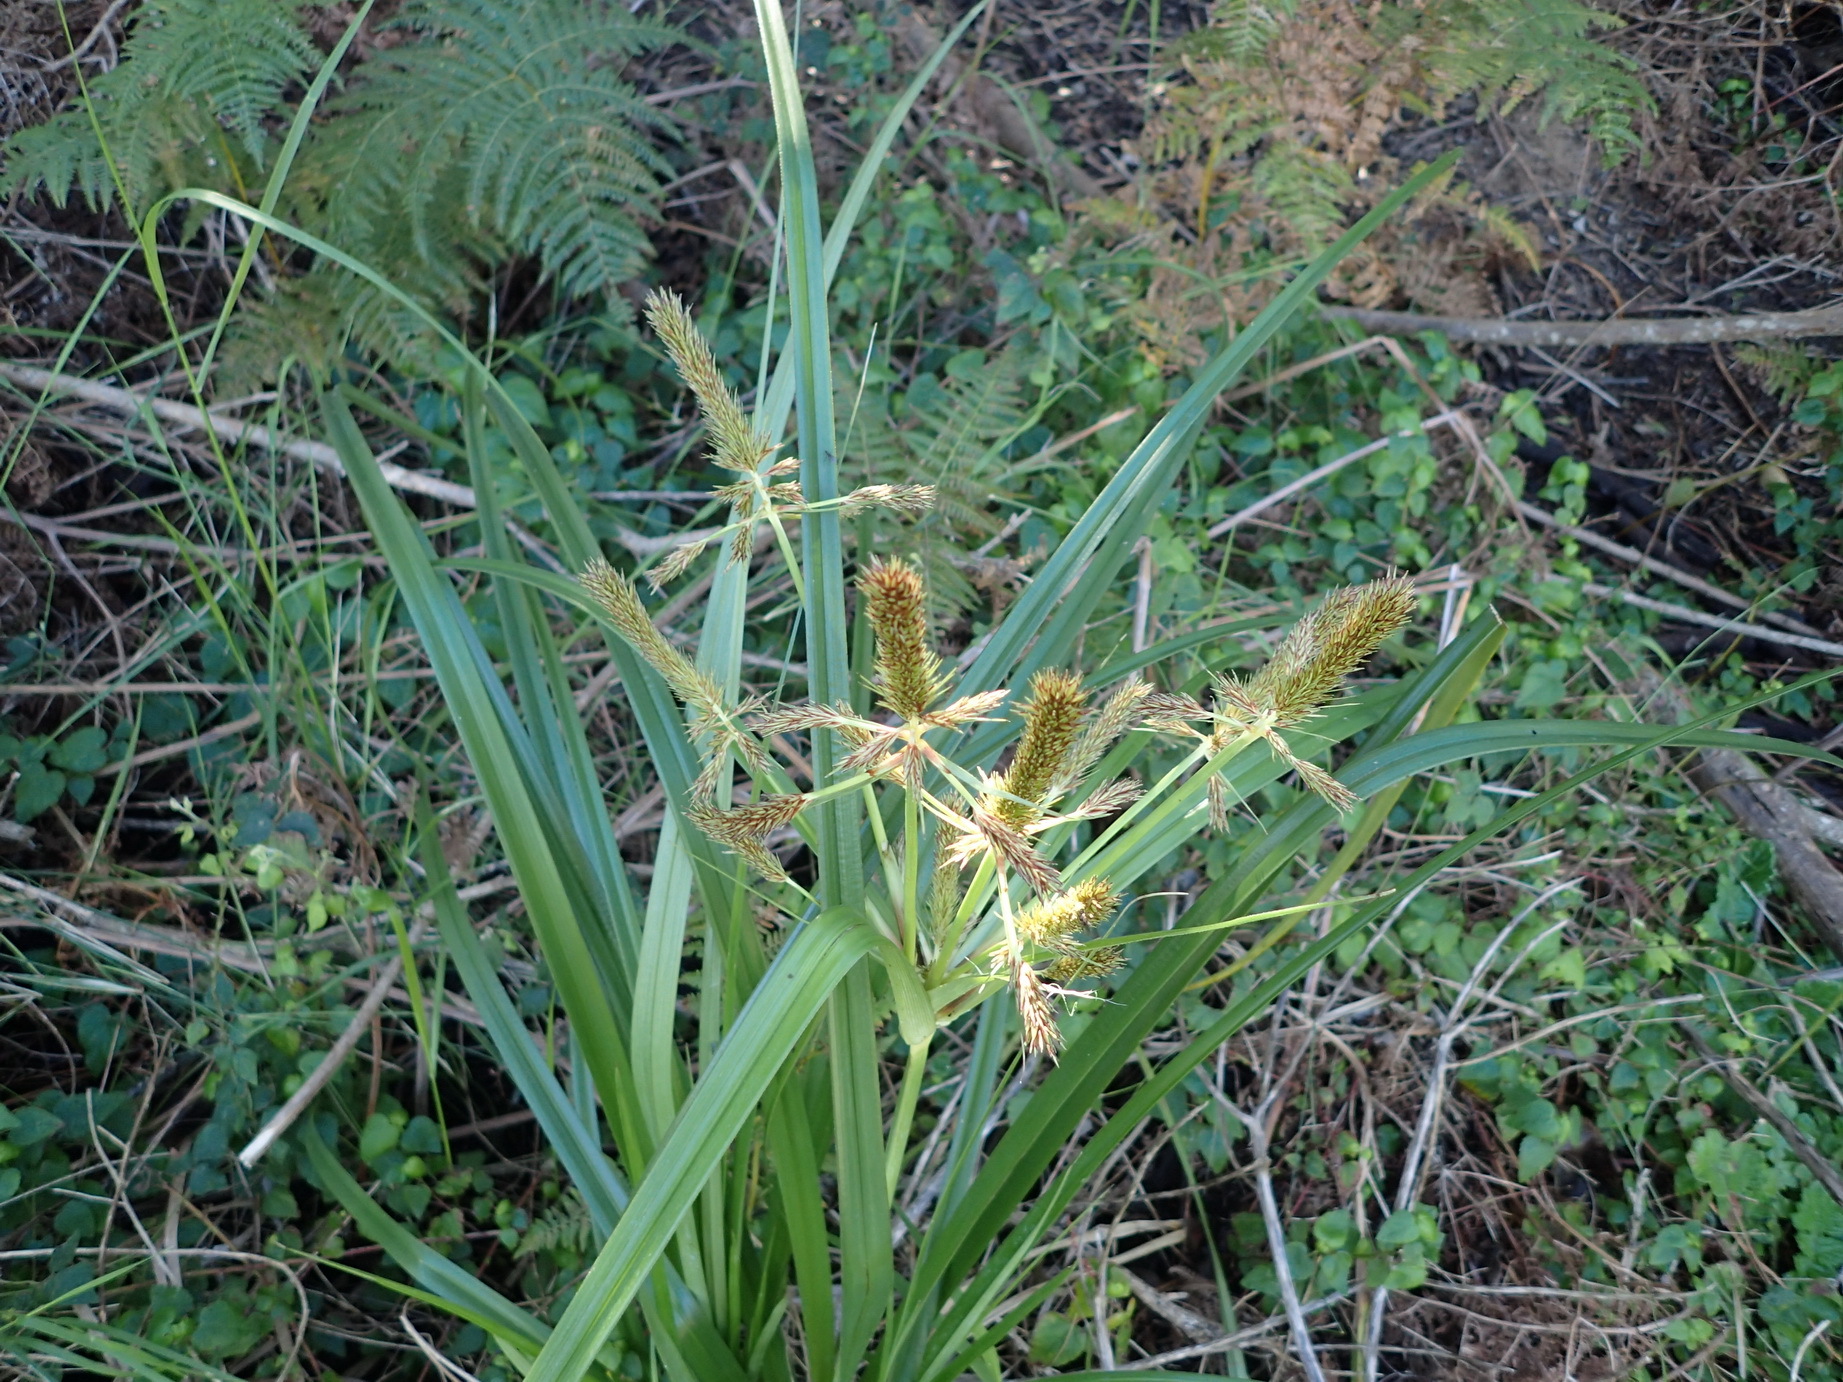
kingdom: Plantae
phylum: Tracheophyta
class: Liliopsida
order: Poales
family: Cyperaceae
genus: Cyperus
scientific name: Cyperus thunbergii
